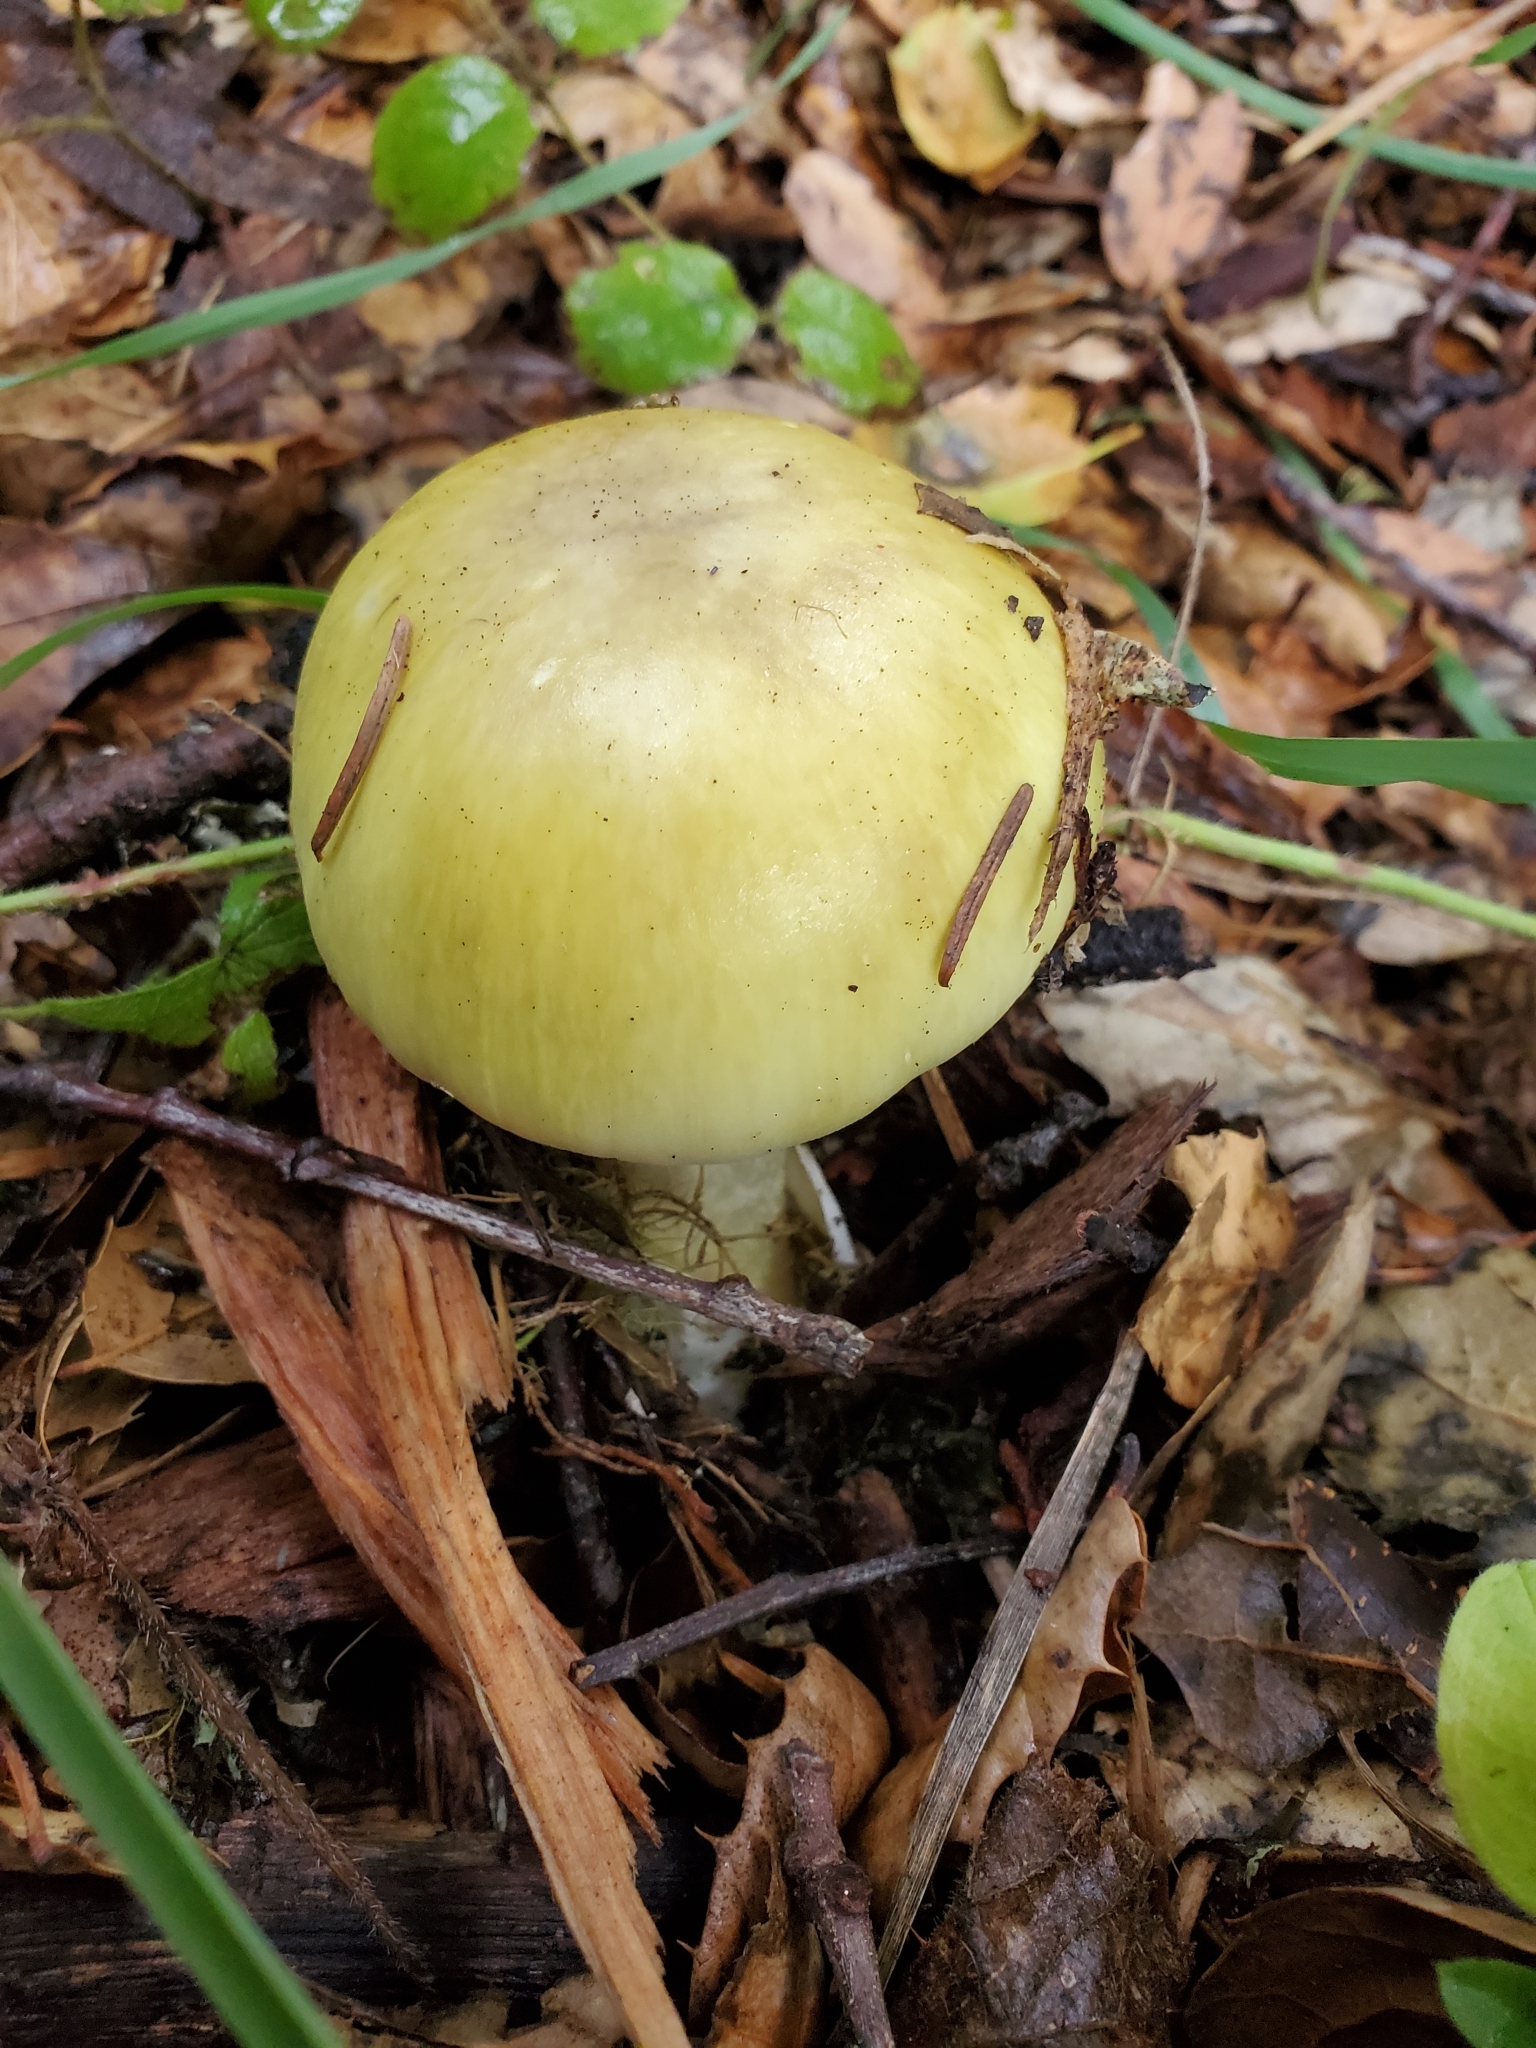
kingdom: Fungi
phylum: Basidiomycota
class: Agaricomycetes
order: Agaricales
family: Amanitaceae
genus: Amanita
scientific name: Amanita phalloides
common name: Death cap
